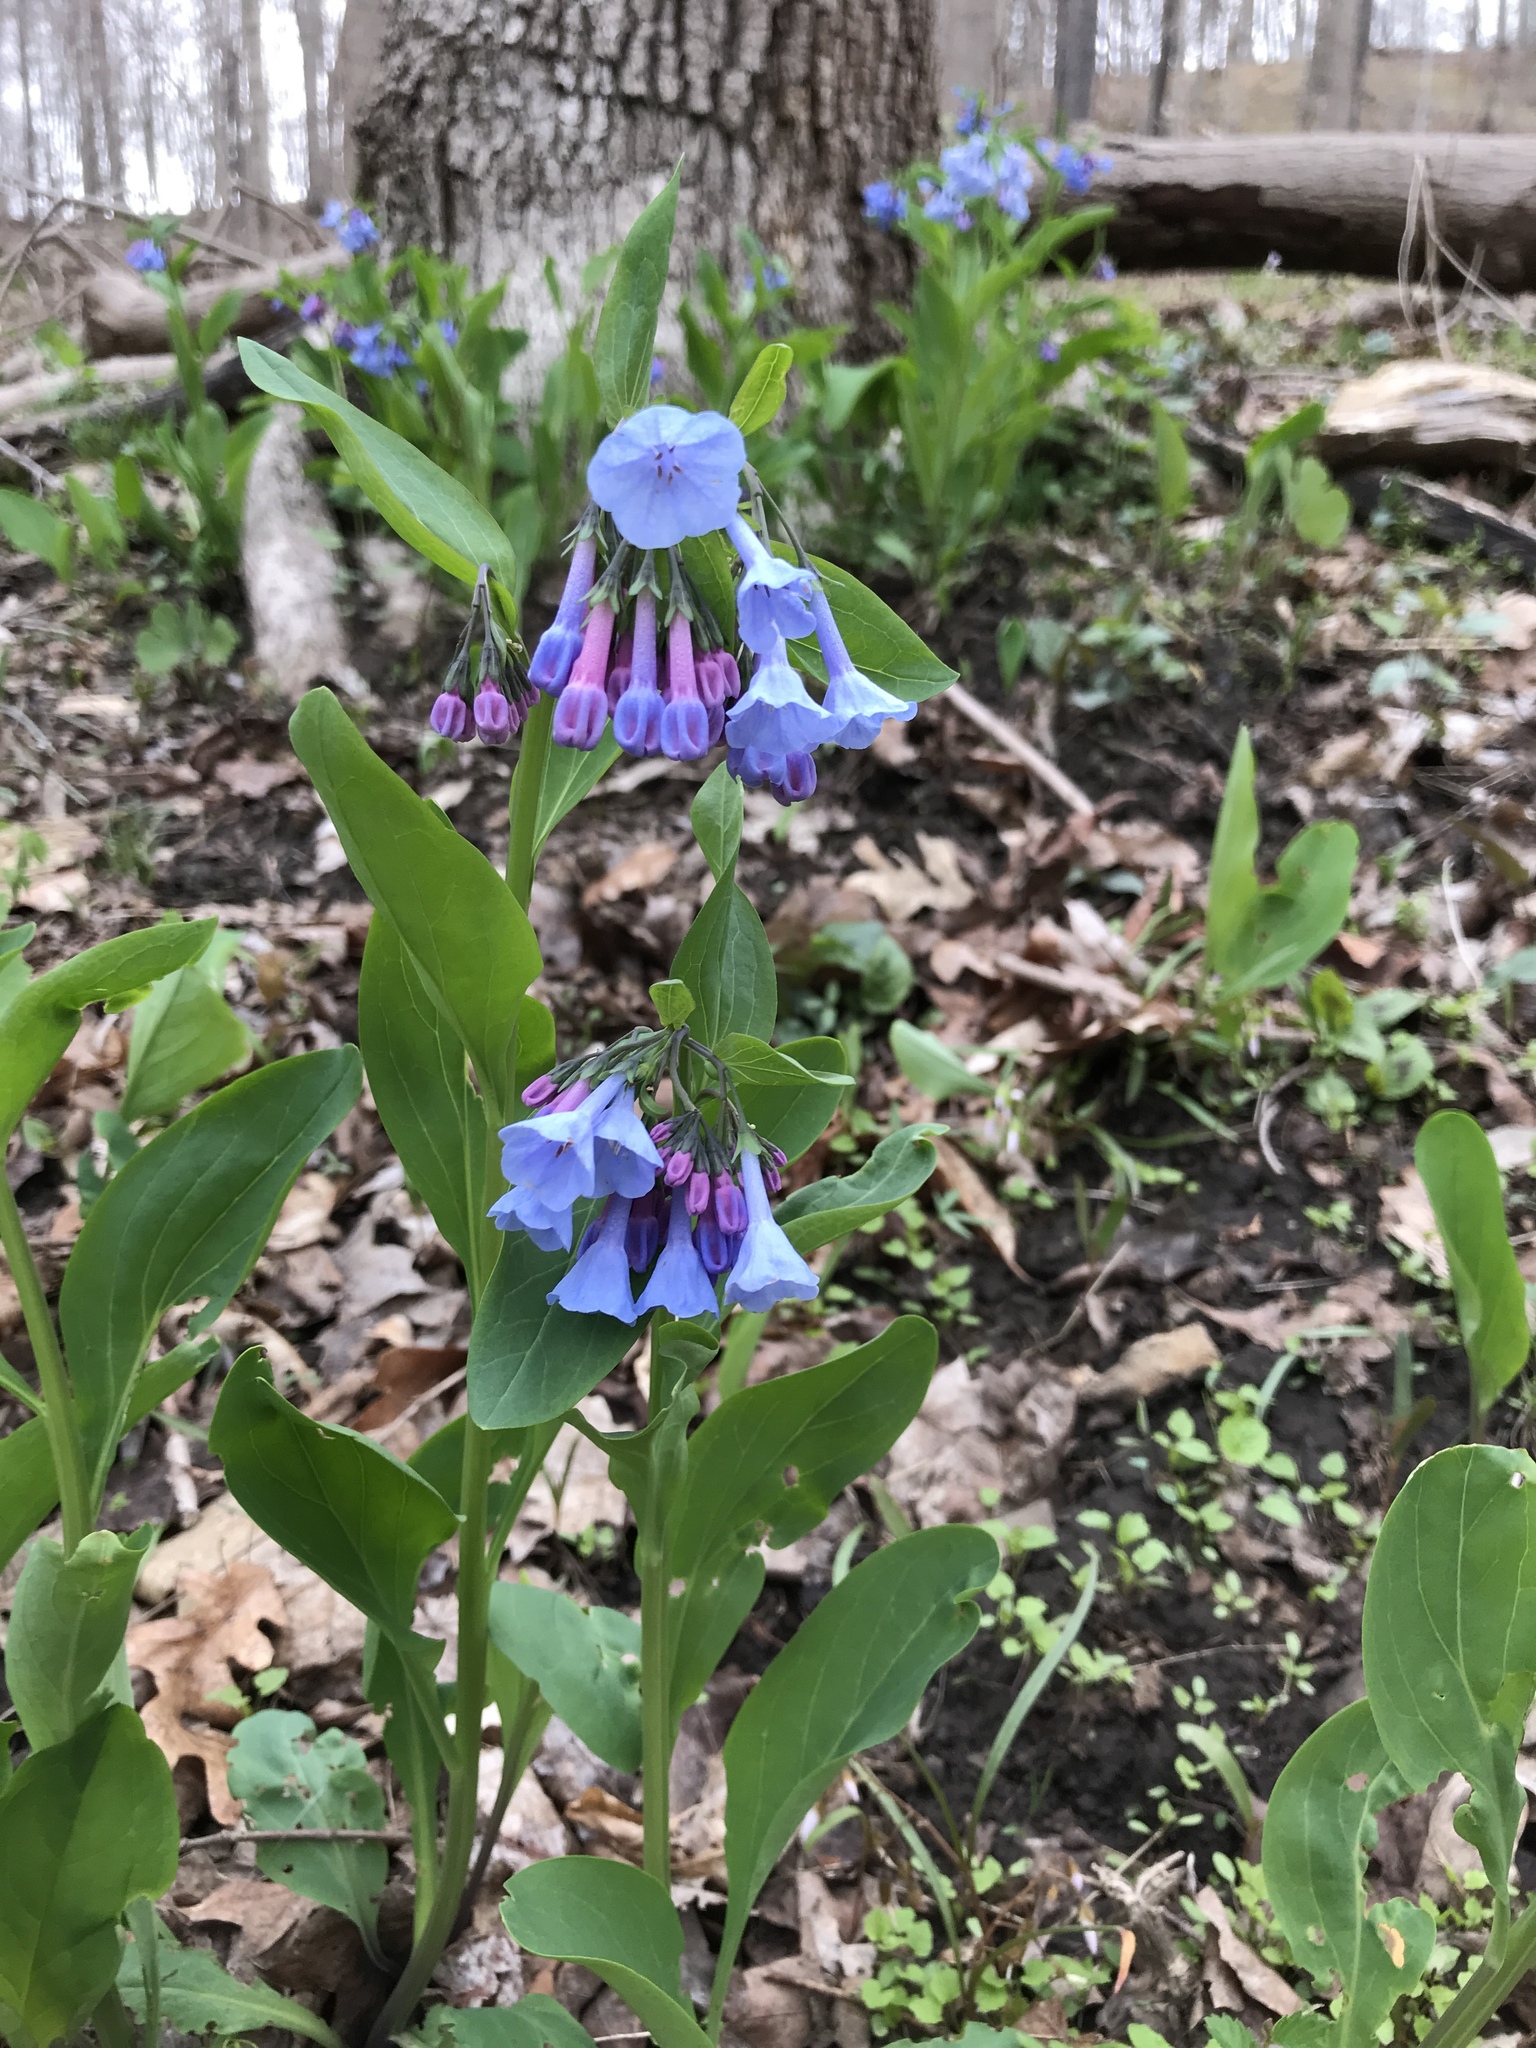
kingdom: Plantae
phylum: Tracheophyta
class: Magnoliopsida
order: Boraginales
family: Boraginaceae
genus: Mertensia
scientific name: Mertensia virginica
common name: Virginia bluebells
